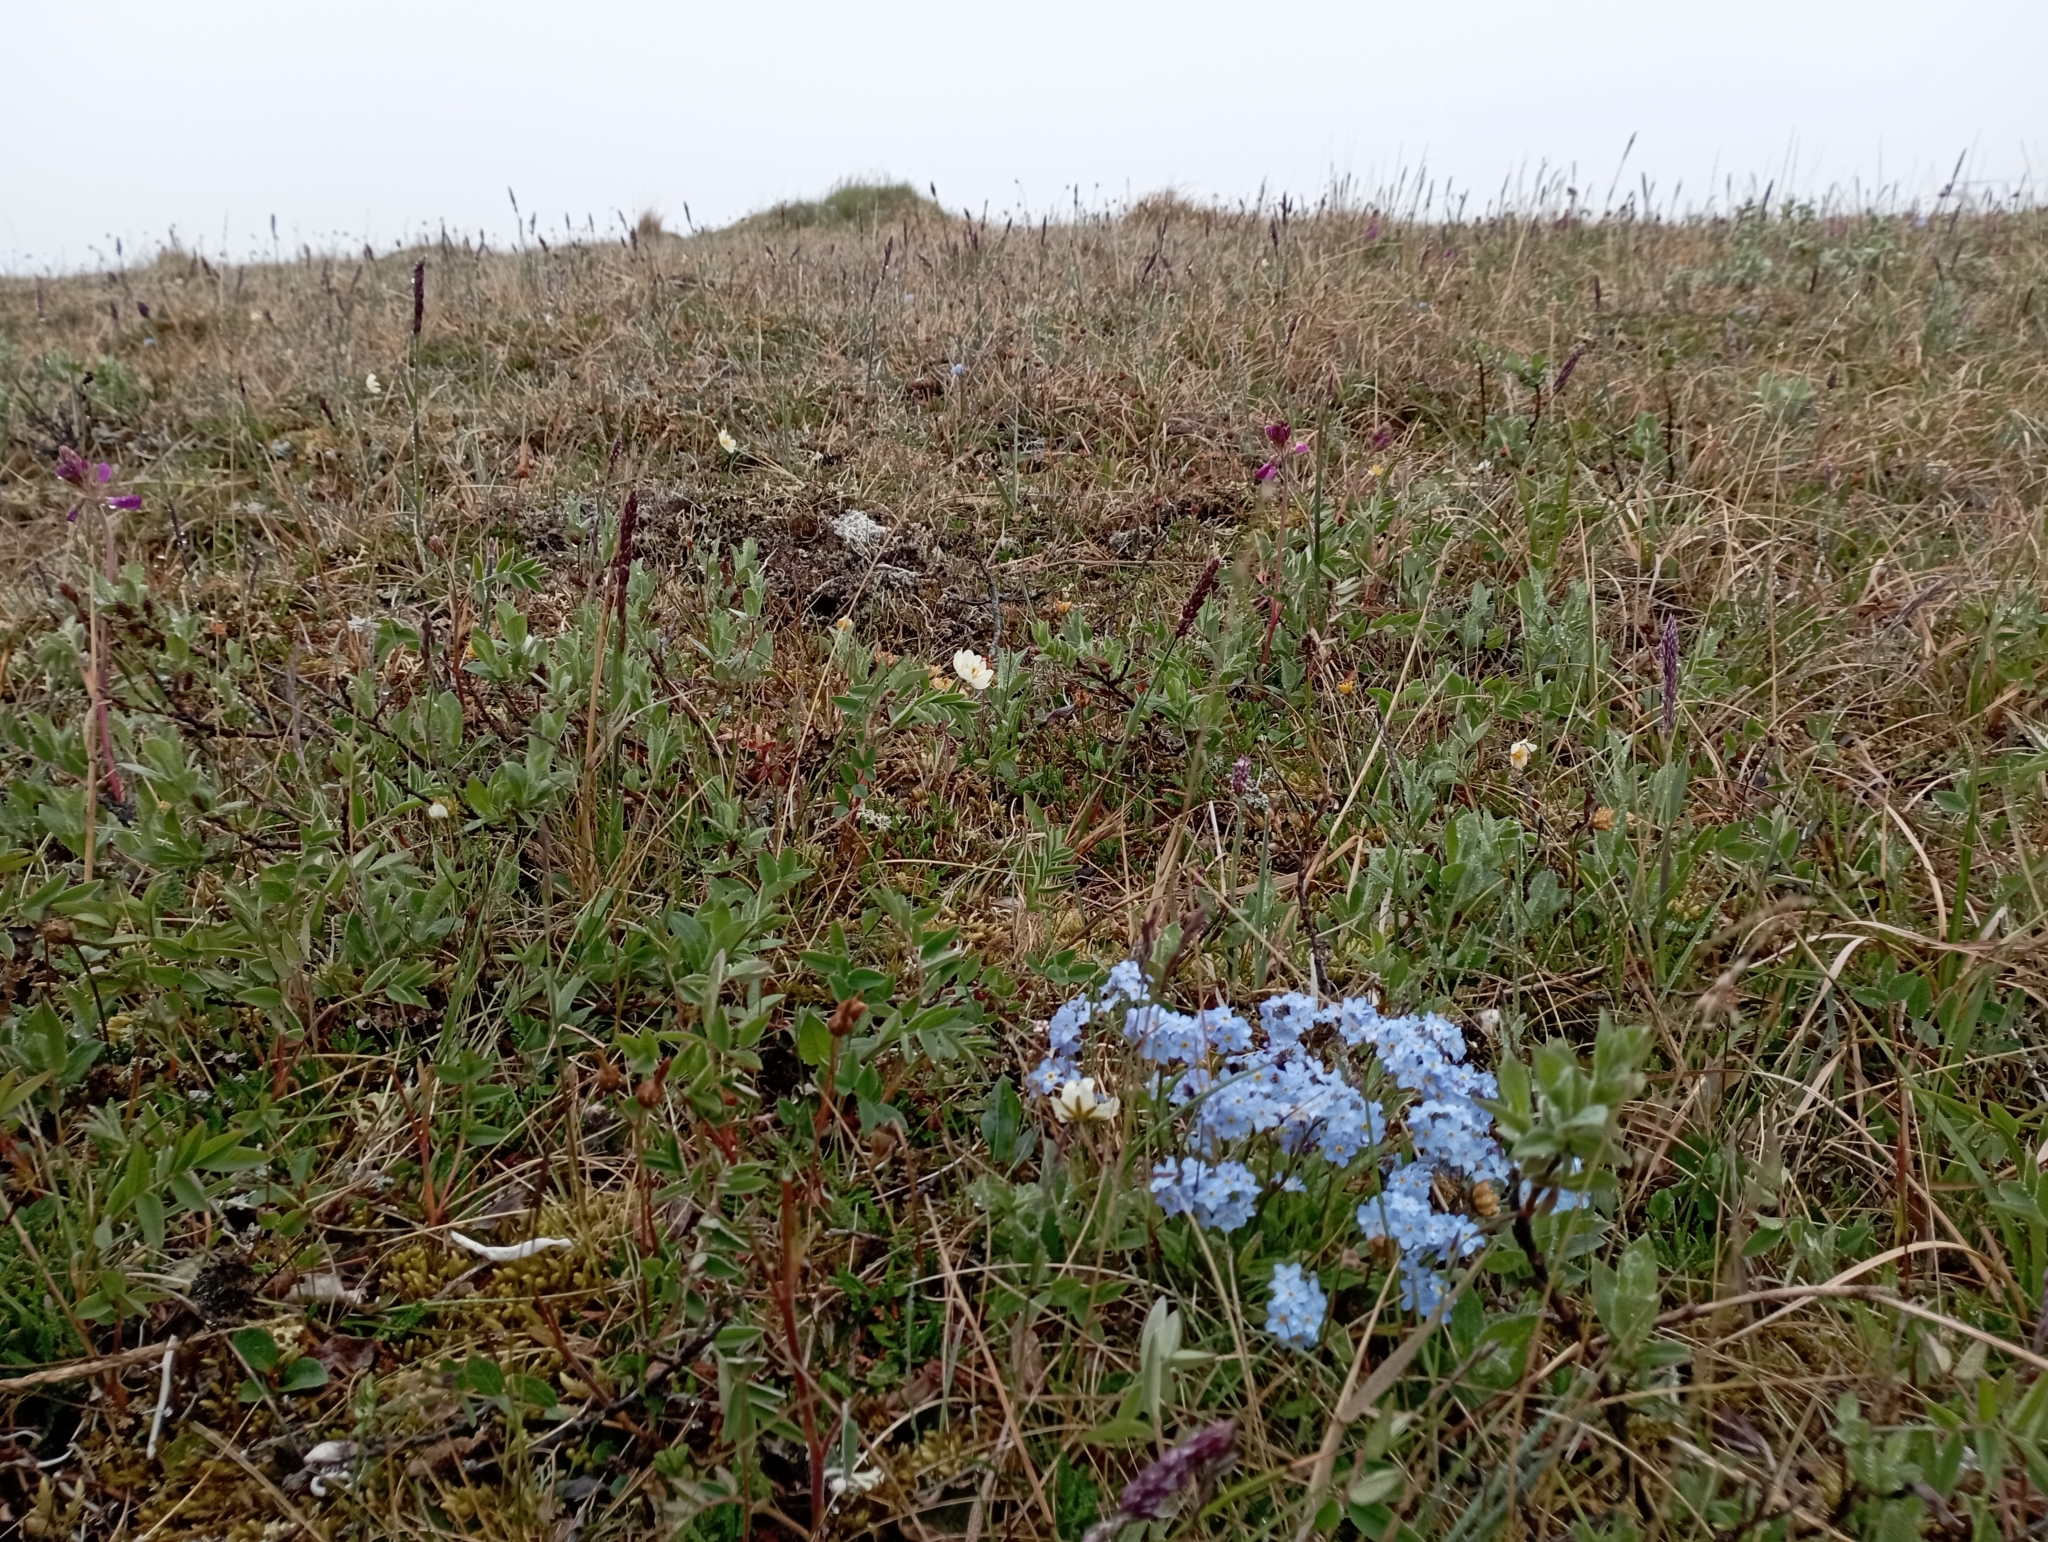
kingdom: Plantae
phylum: Tracheophyta
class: Magnoliopsida
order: Boraginales
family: Boraginaceae
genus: Myosotis
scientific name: Myosotis asiatica
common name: Asian forget-me-not
